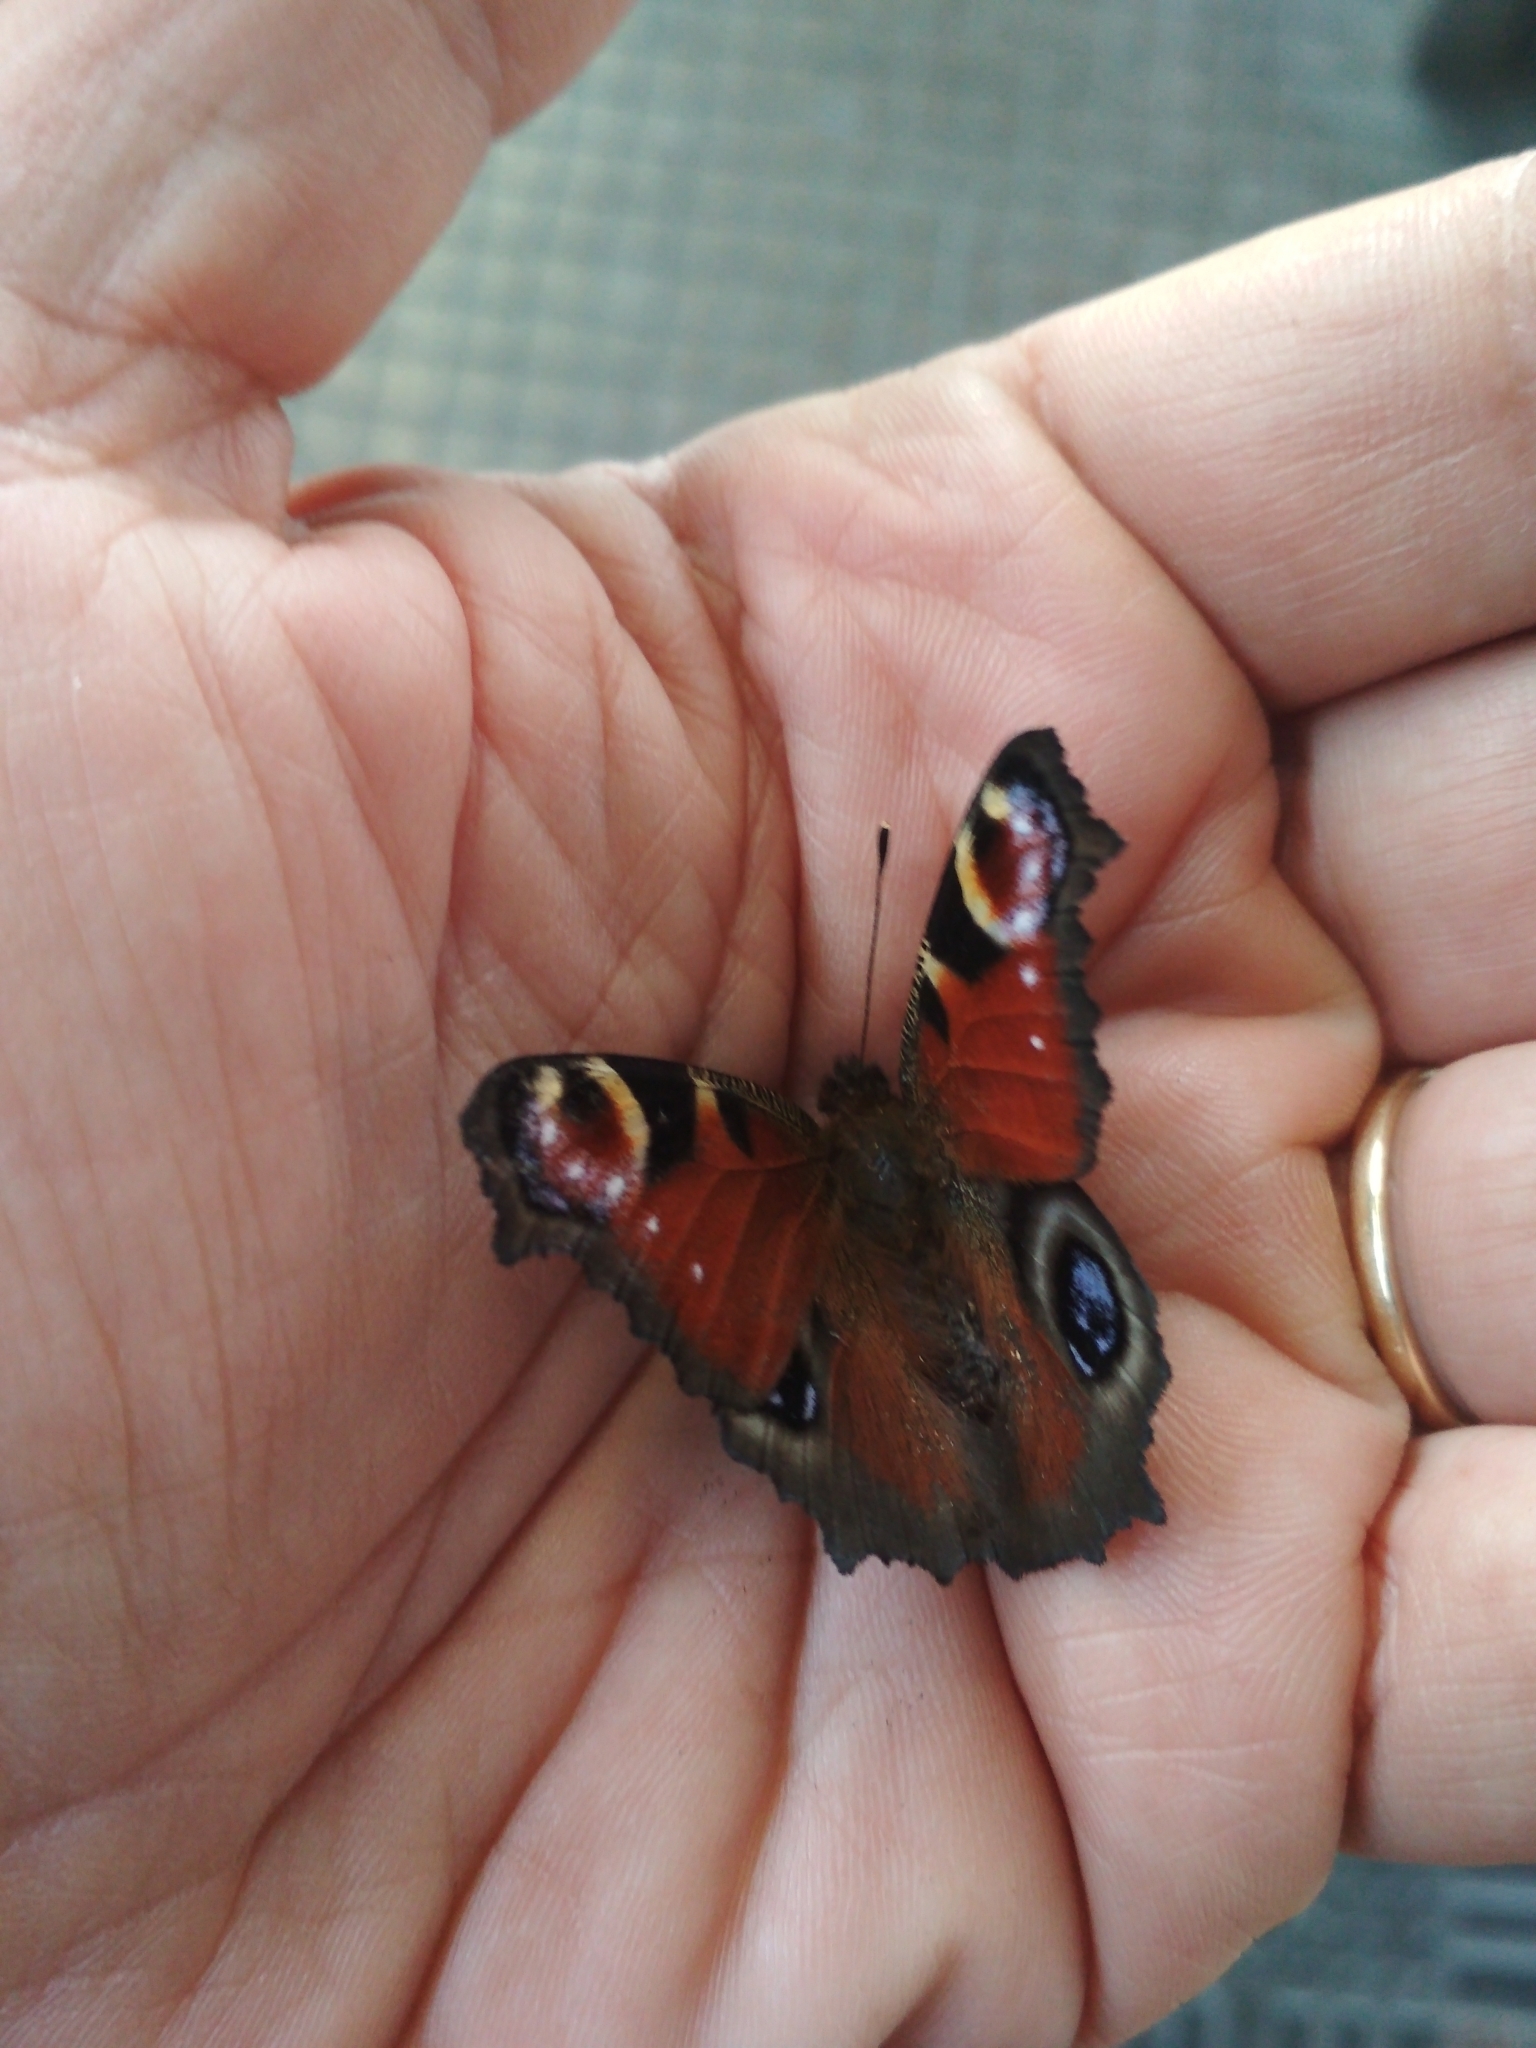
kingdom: Animalia
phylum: Arthropoda
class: Insecta
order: Lepidoptera
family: Nymphalidae
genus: Aglais
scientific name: Aglais io
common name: Peacock
